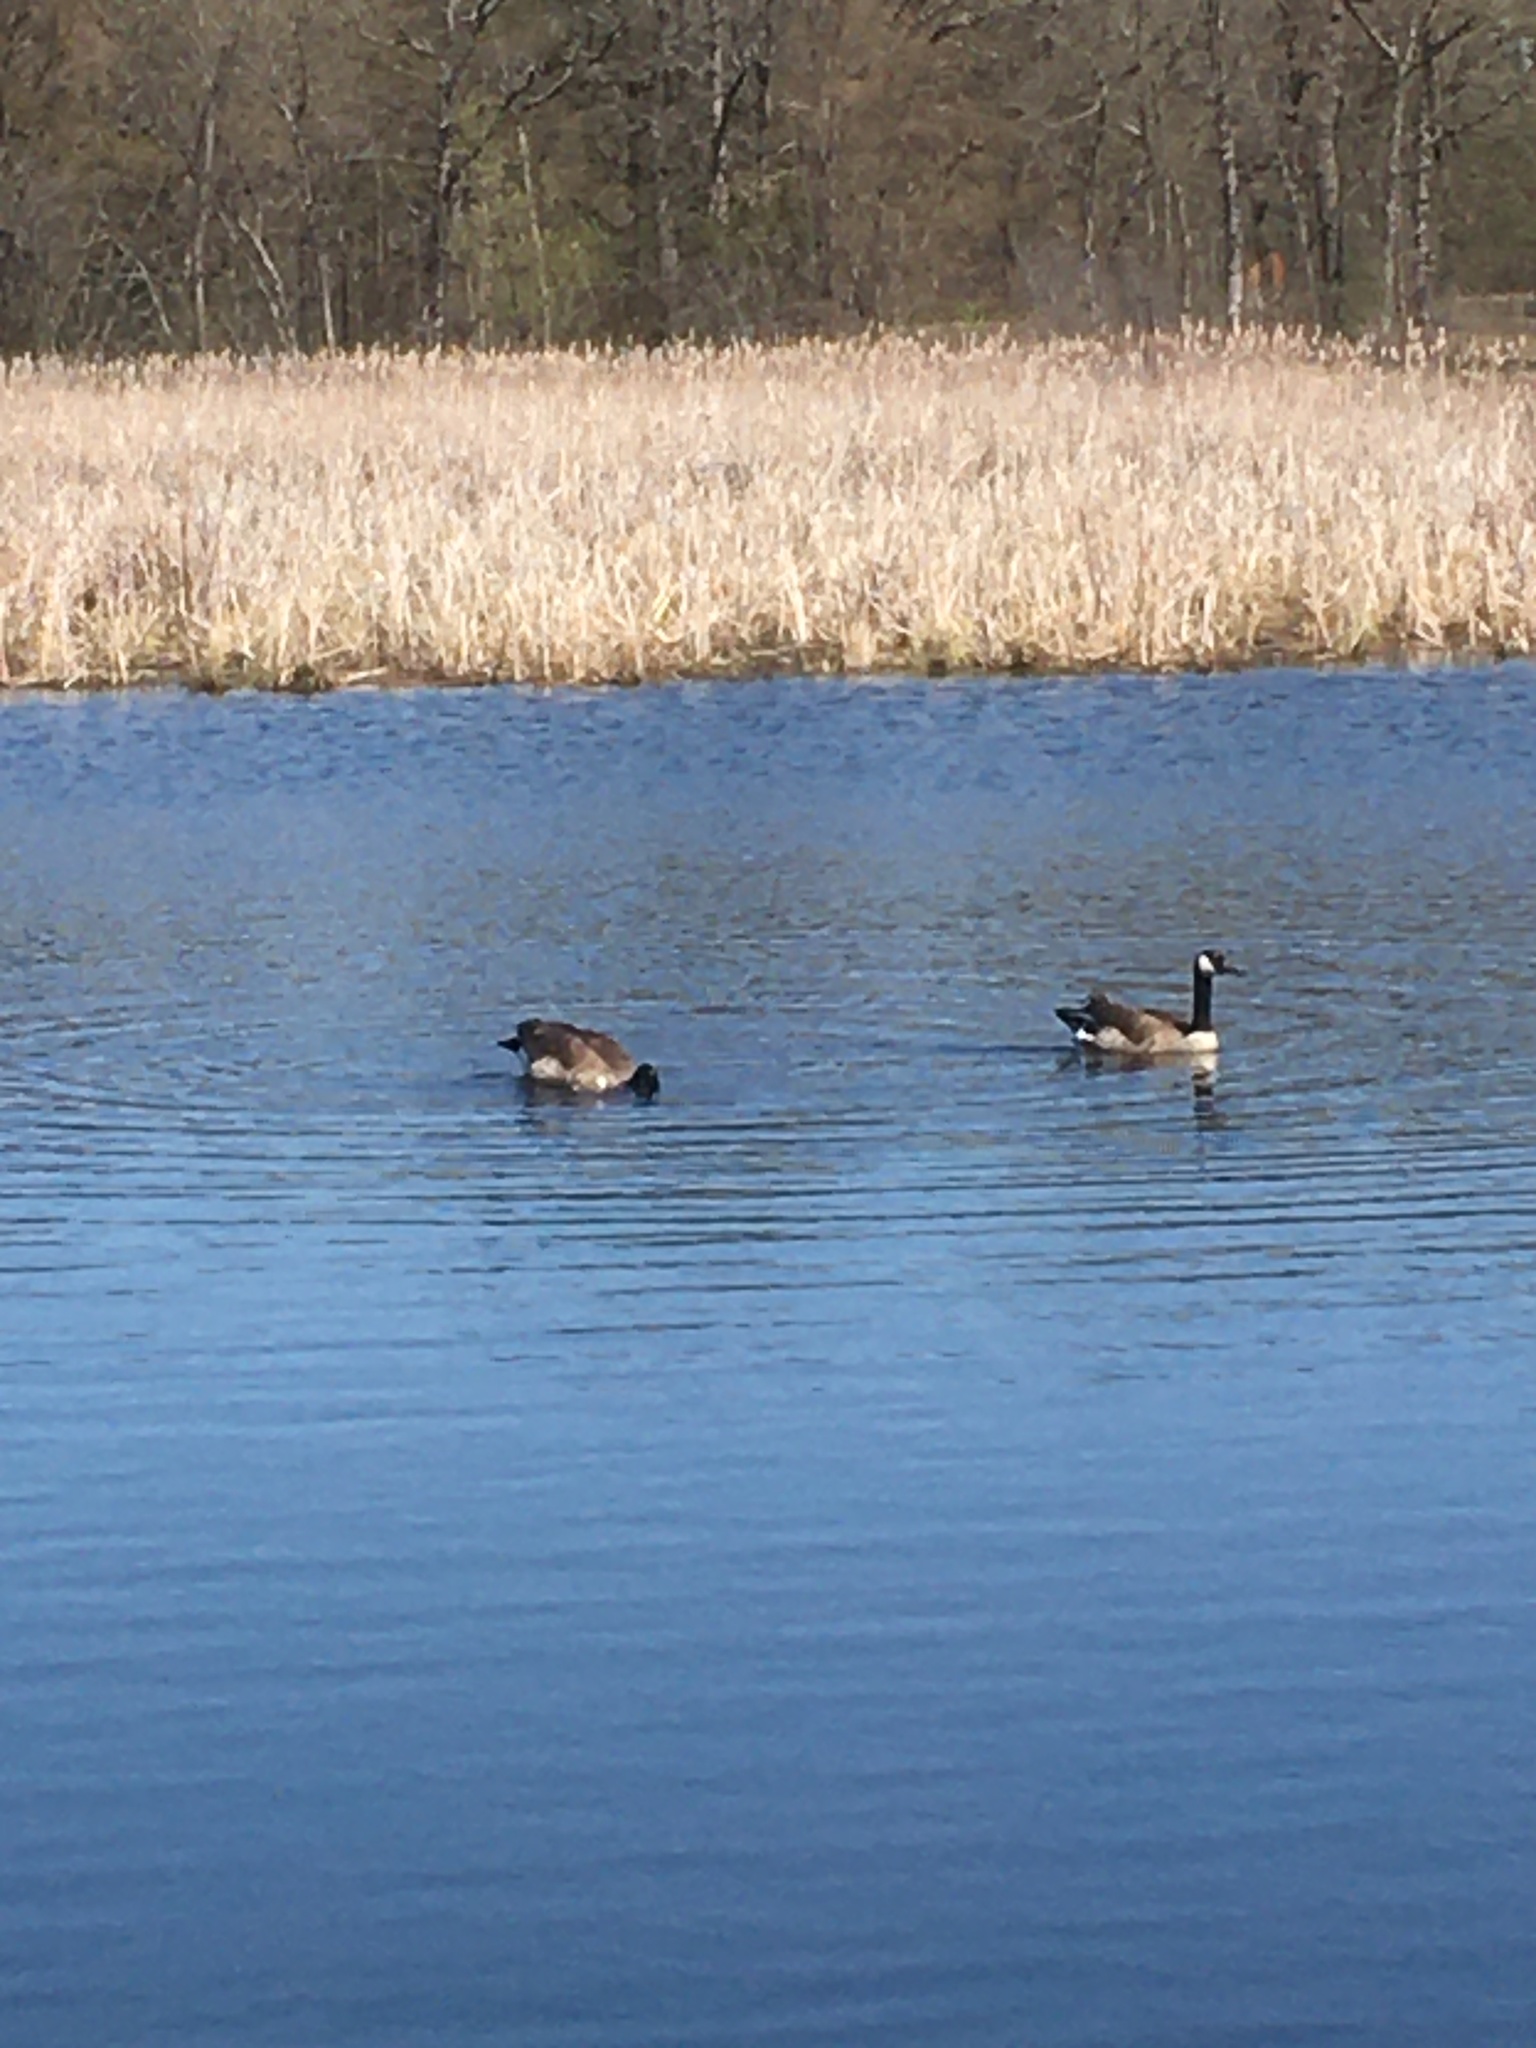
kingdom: Animalia
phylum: Chordata
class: Aves
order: Anseriformes
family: Anatidae
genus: Branta
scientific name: Branta canadensis
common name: Canada goose
